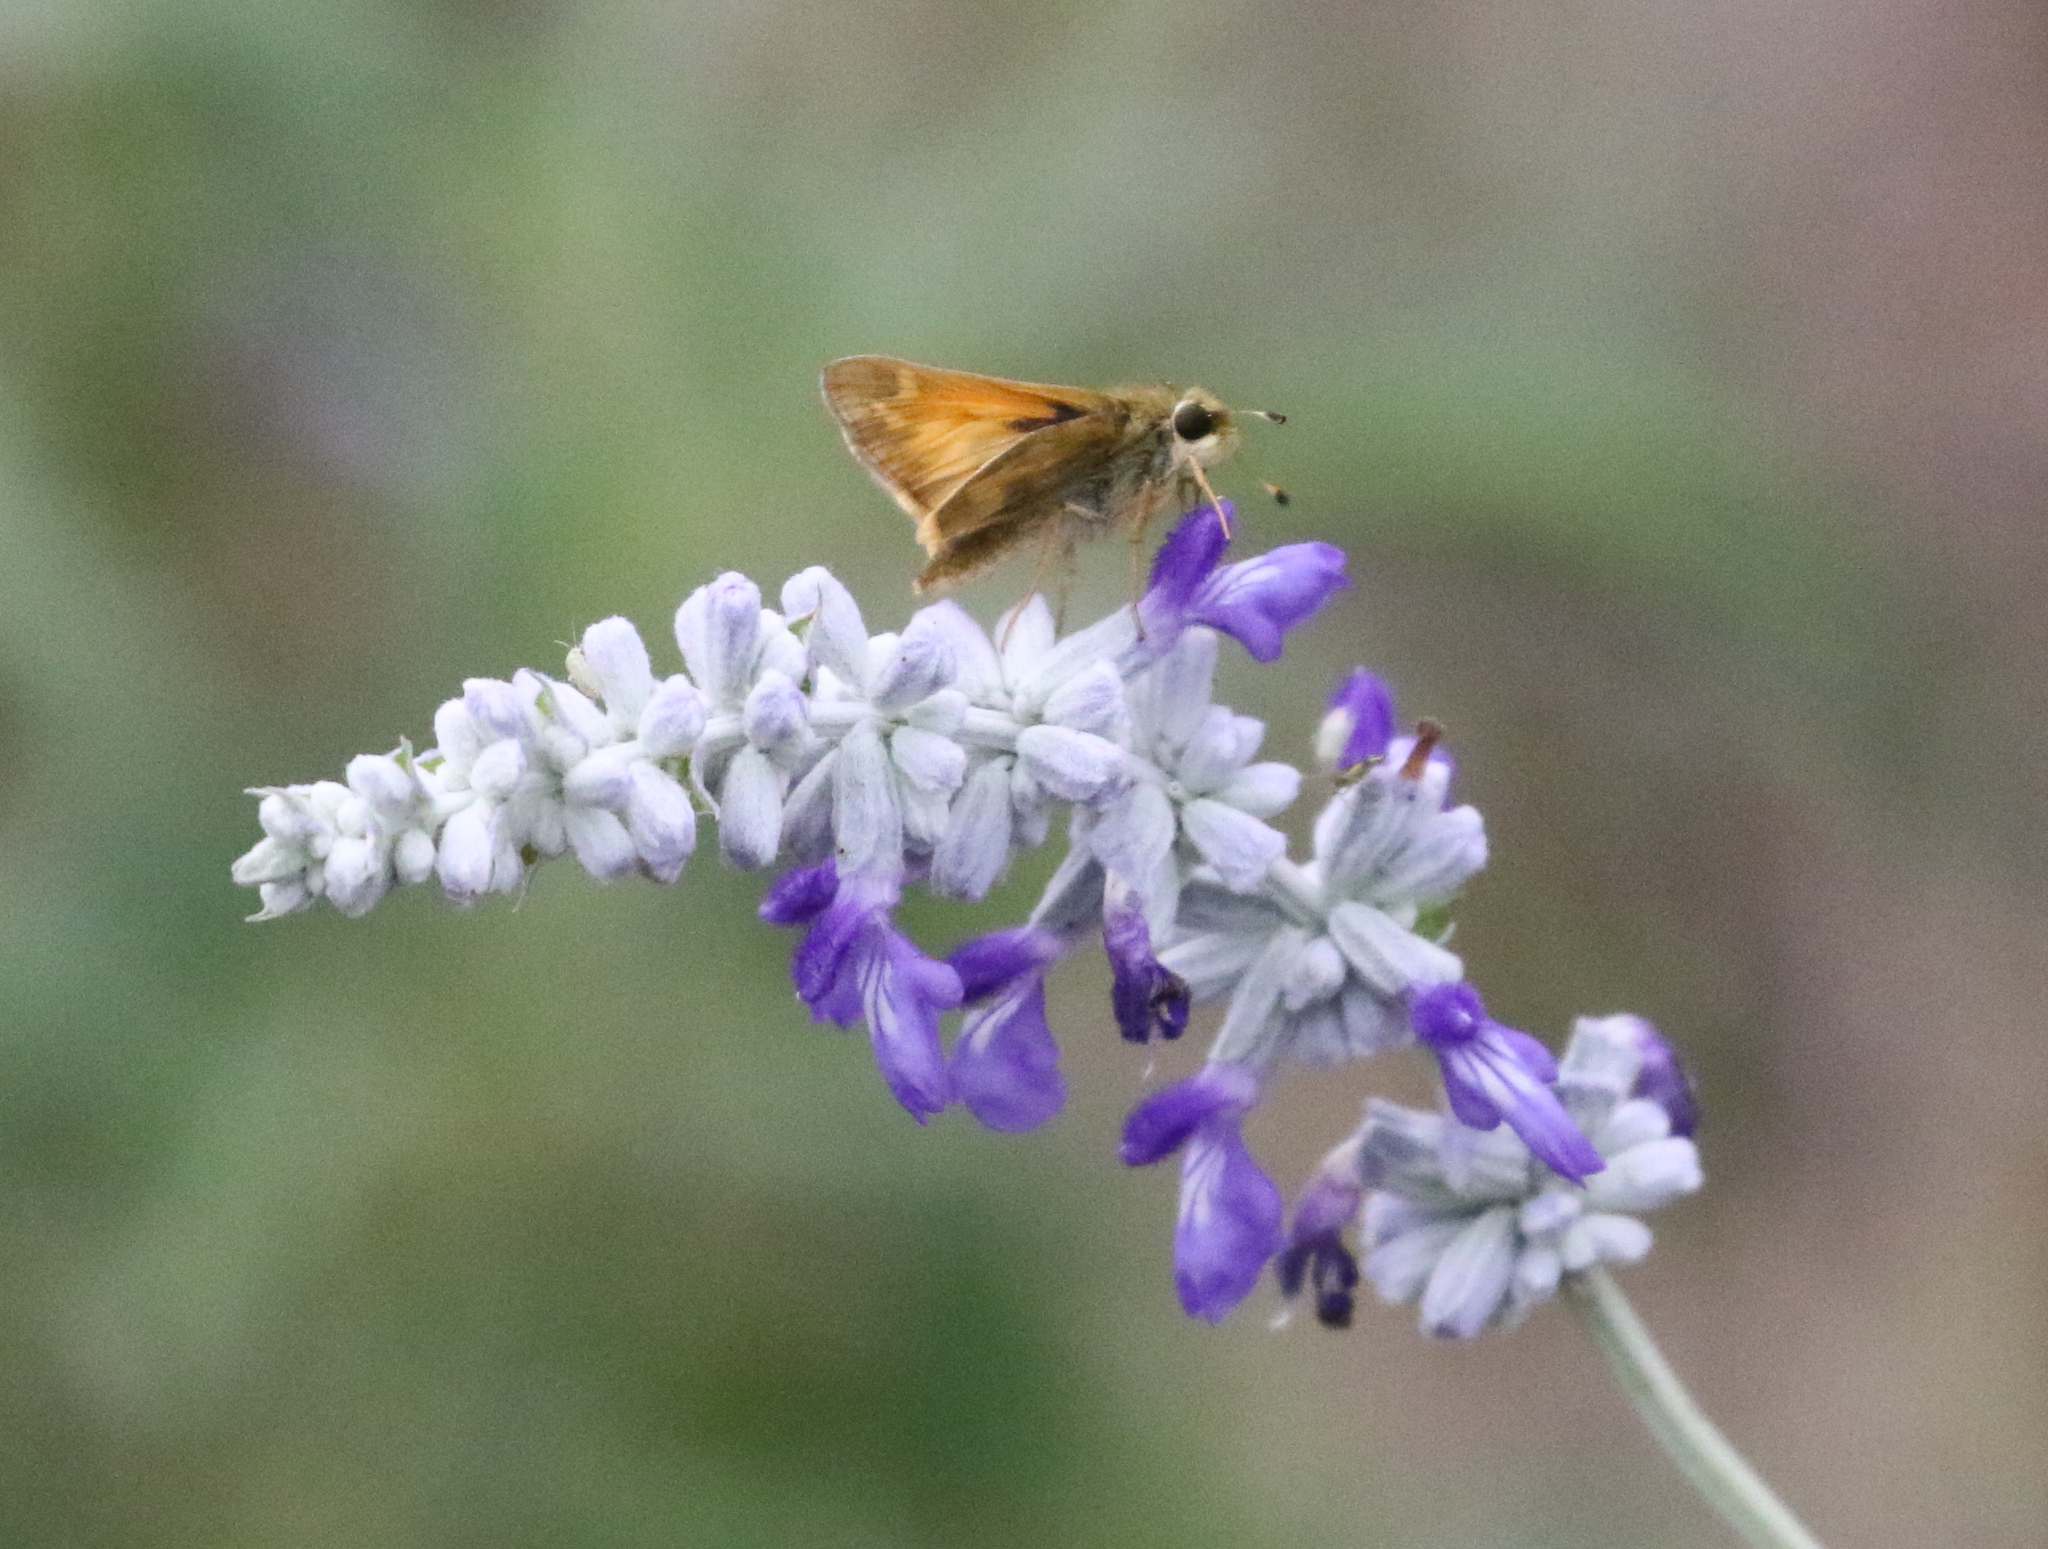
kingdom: Animalia
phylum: Arthropoda
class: Insecta
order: Lepidoptera
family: Hesperiidae
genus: Atalopedes
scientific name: Atalopedes
